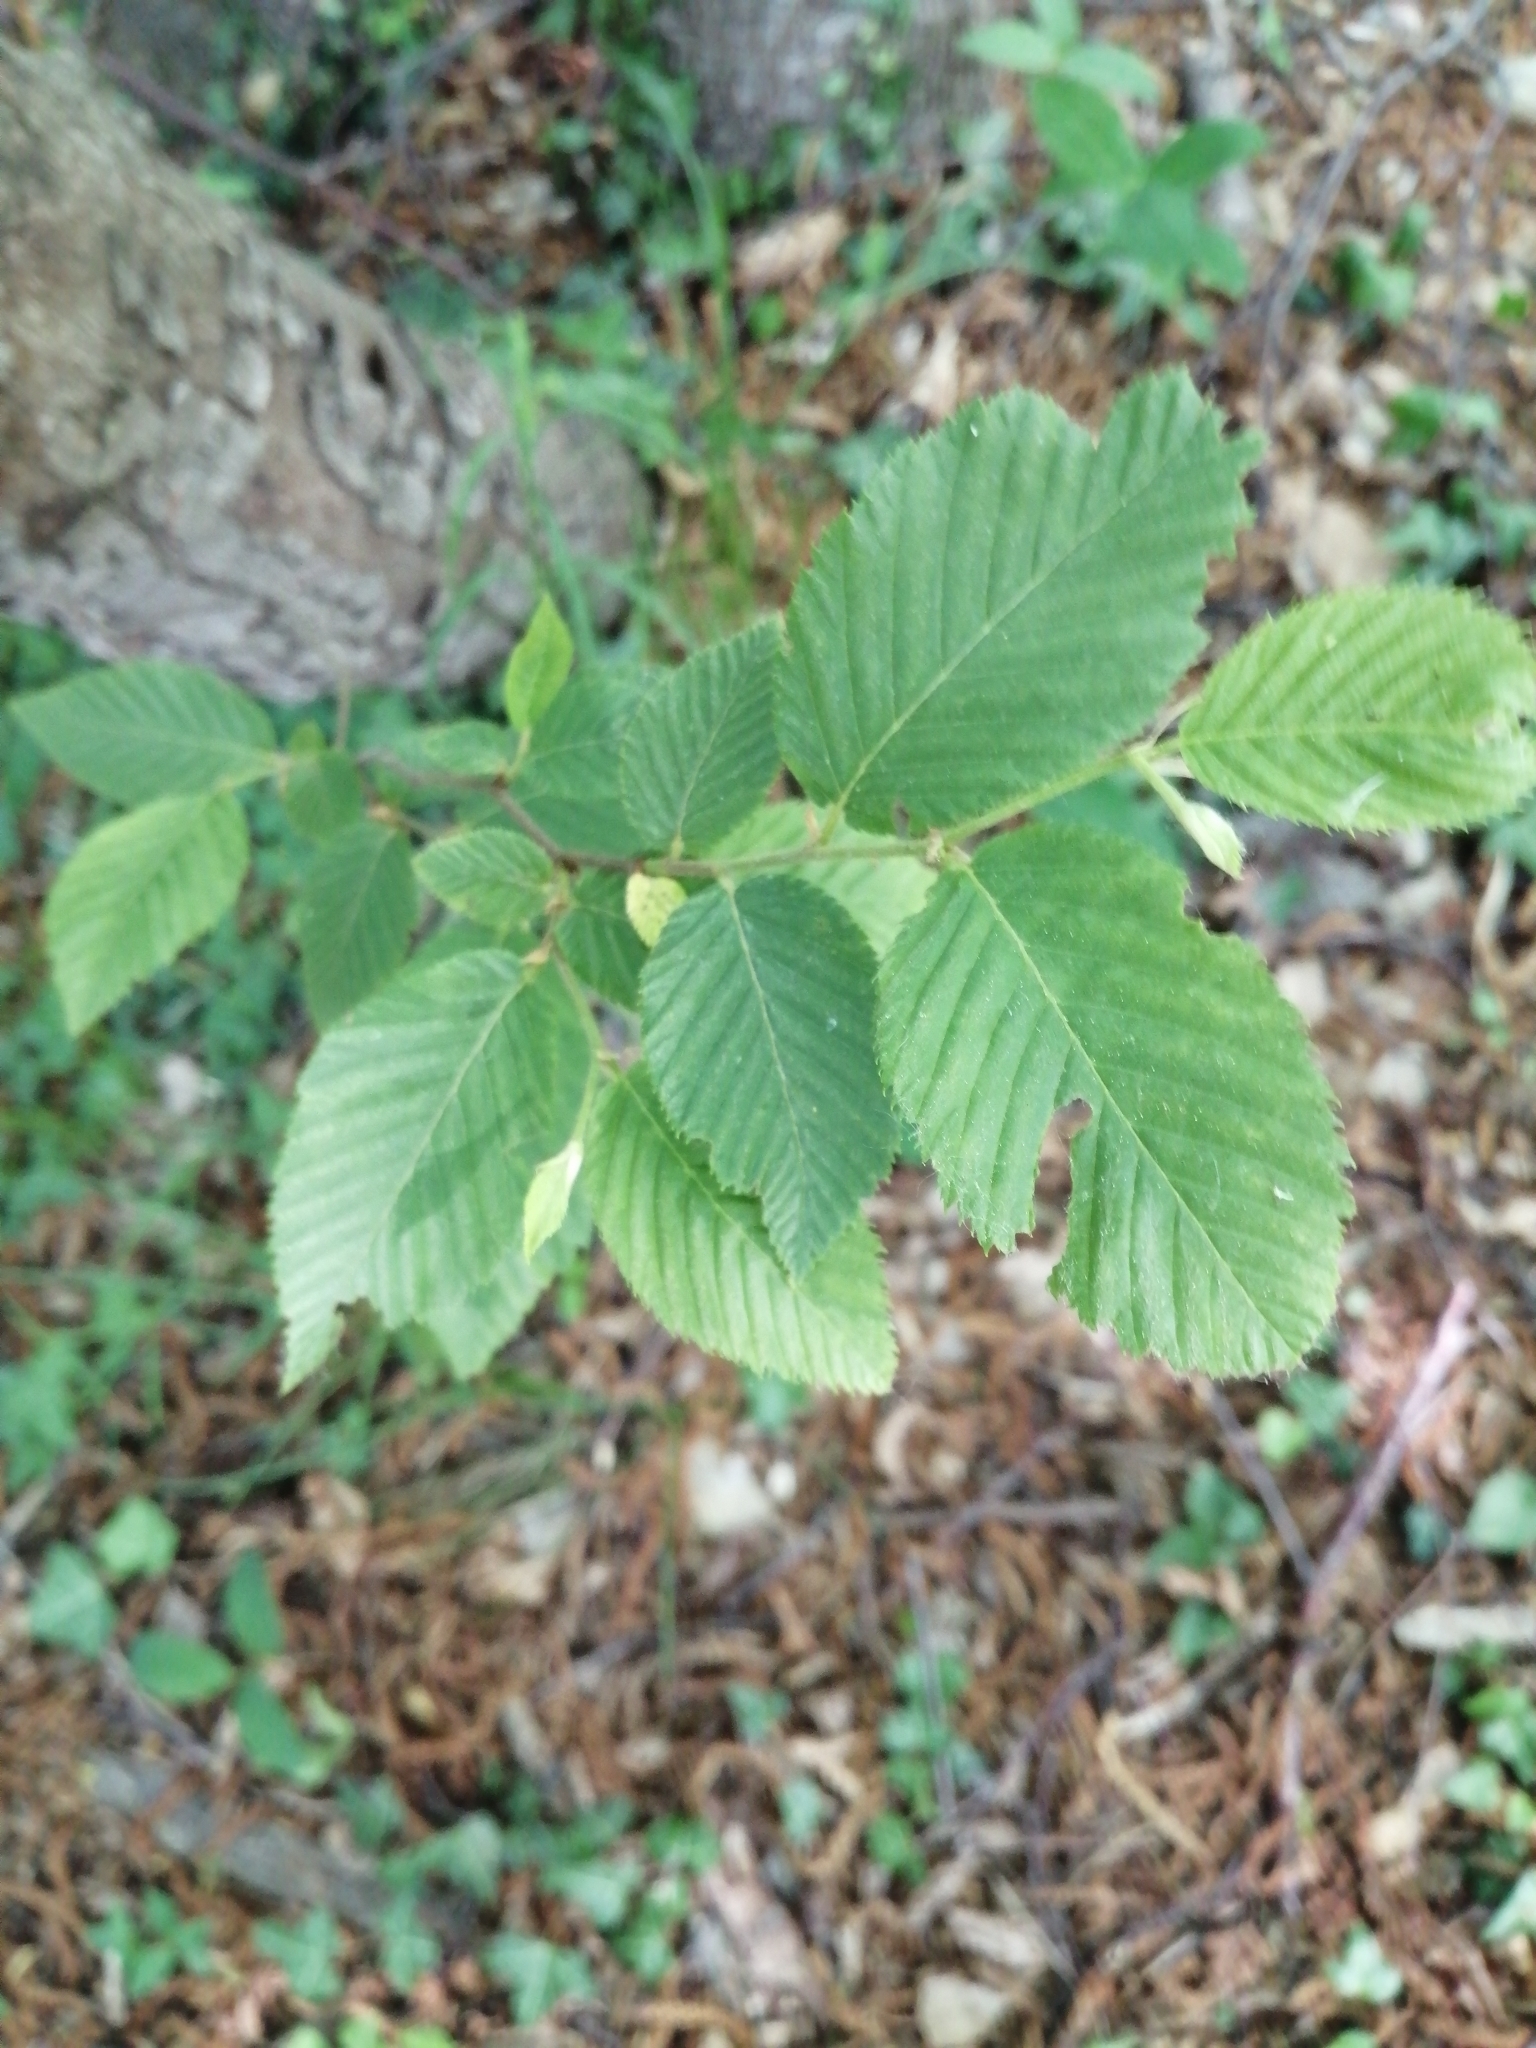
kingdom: Plantae
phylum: Tracheophyta
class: Magnoliopsida
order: Fagales
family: Betulaceae
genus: Ostrya
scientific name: Ostrya carpinifolia
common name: European hop-hornbeam
